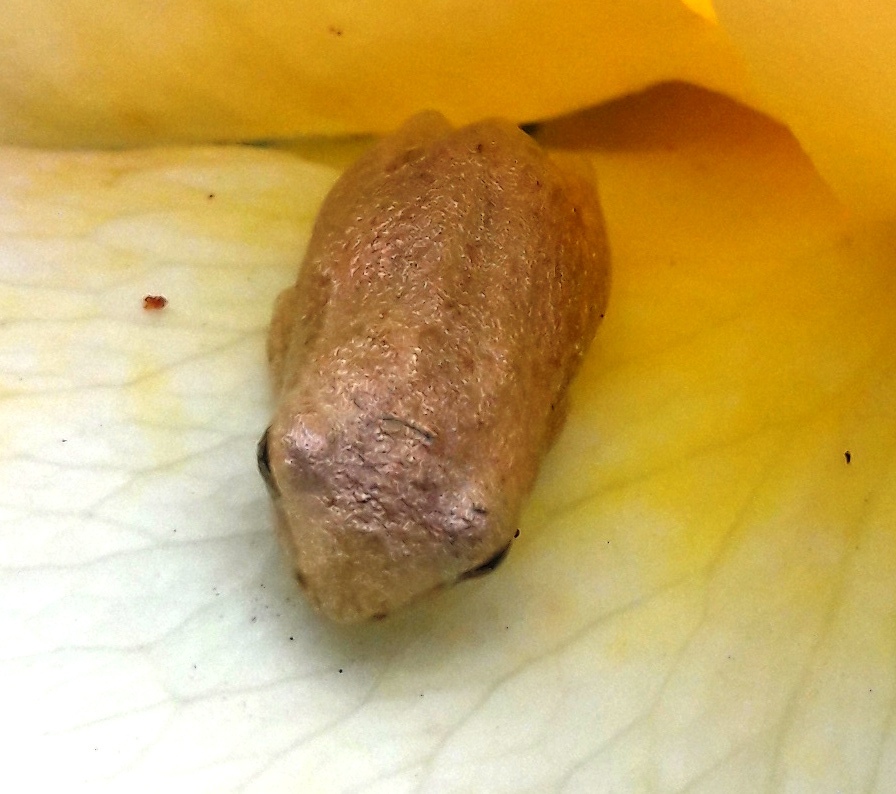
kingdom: Animalia
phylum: Chordata
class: Amphibia
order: Anura
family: Hyperoliidae
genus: Hyperolius
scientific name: Hyperolius marmoratus
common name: Painted reed frog
